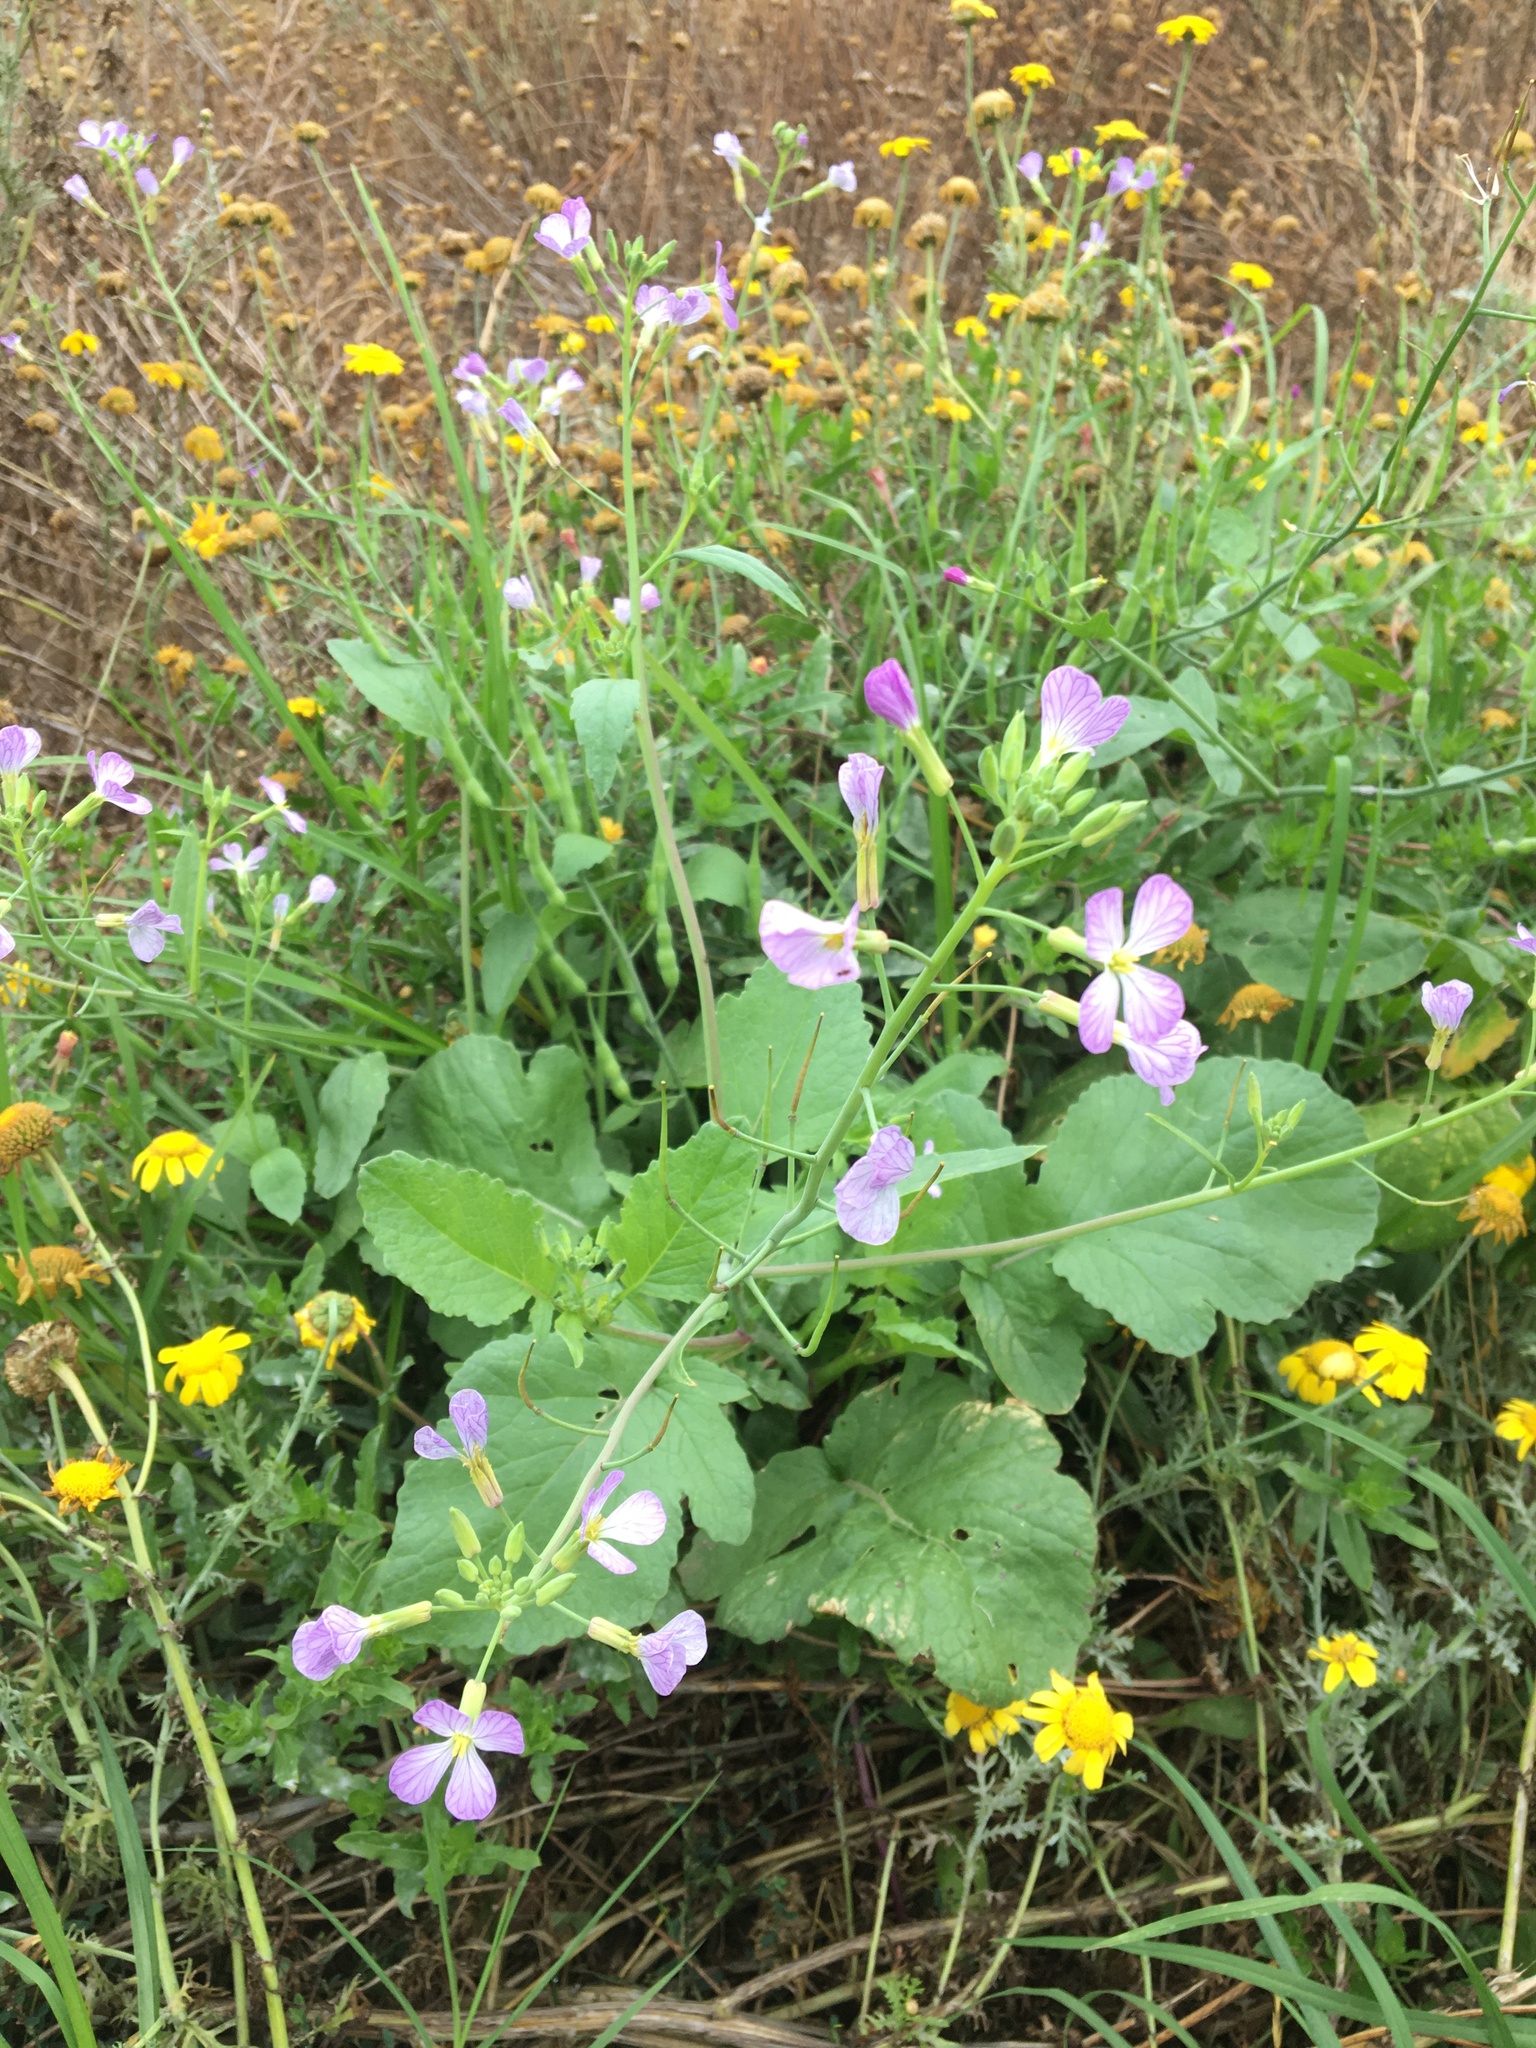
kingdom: Plantae
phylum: Tracheophyta
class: Magnoliopsida
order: Brassicales
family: Brassicaceae
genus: Raphanus
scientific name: Raphanus sativus
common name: Cultivated radish
